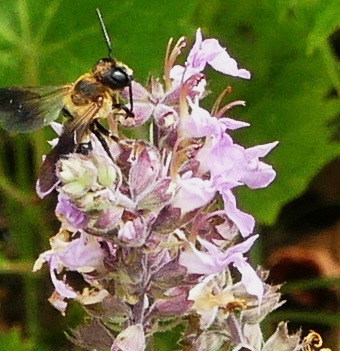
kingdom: Animalia
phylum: Arthropoda
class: Insecta
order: Hymenoptera
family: Megachilidae
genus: Megachile
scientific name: Megachile sculpturalis
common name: Sculptured resin bee
